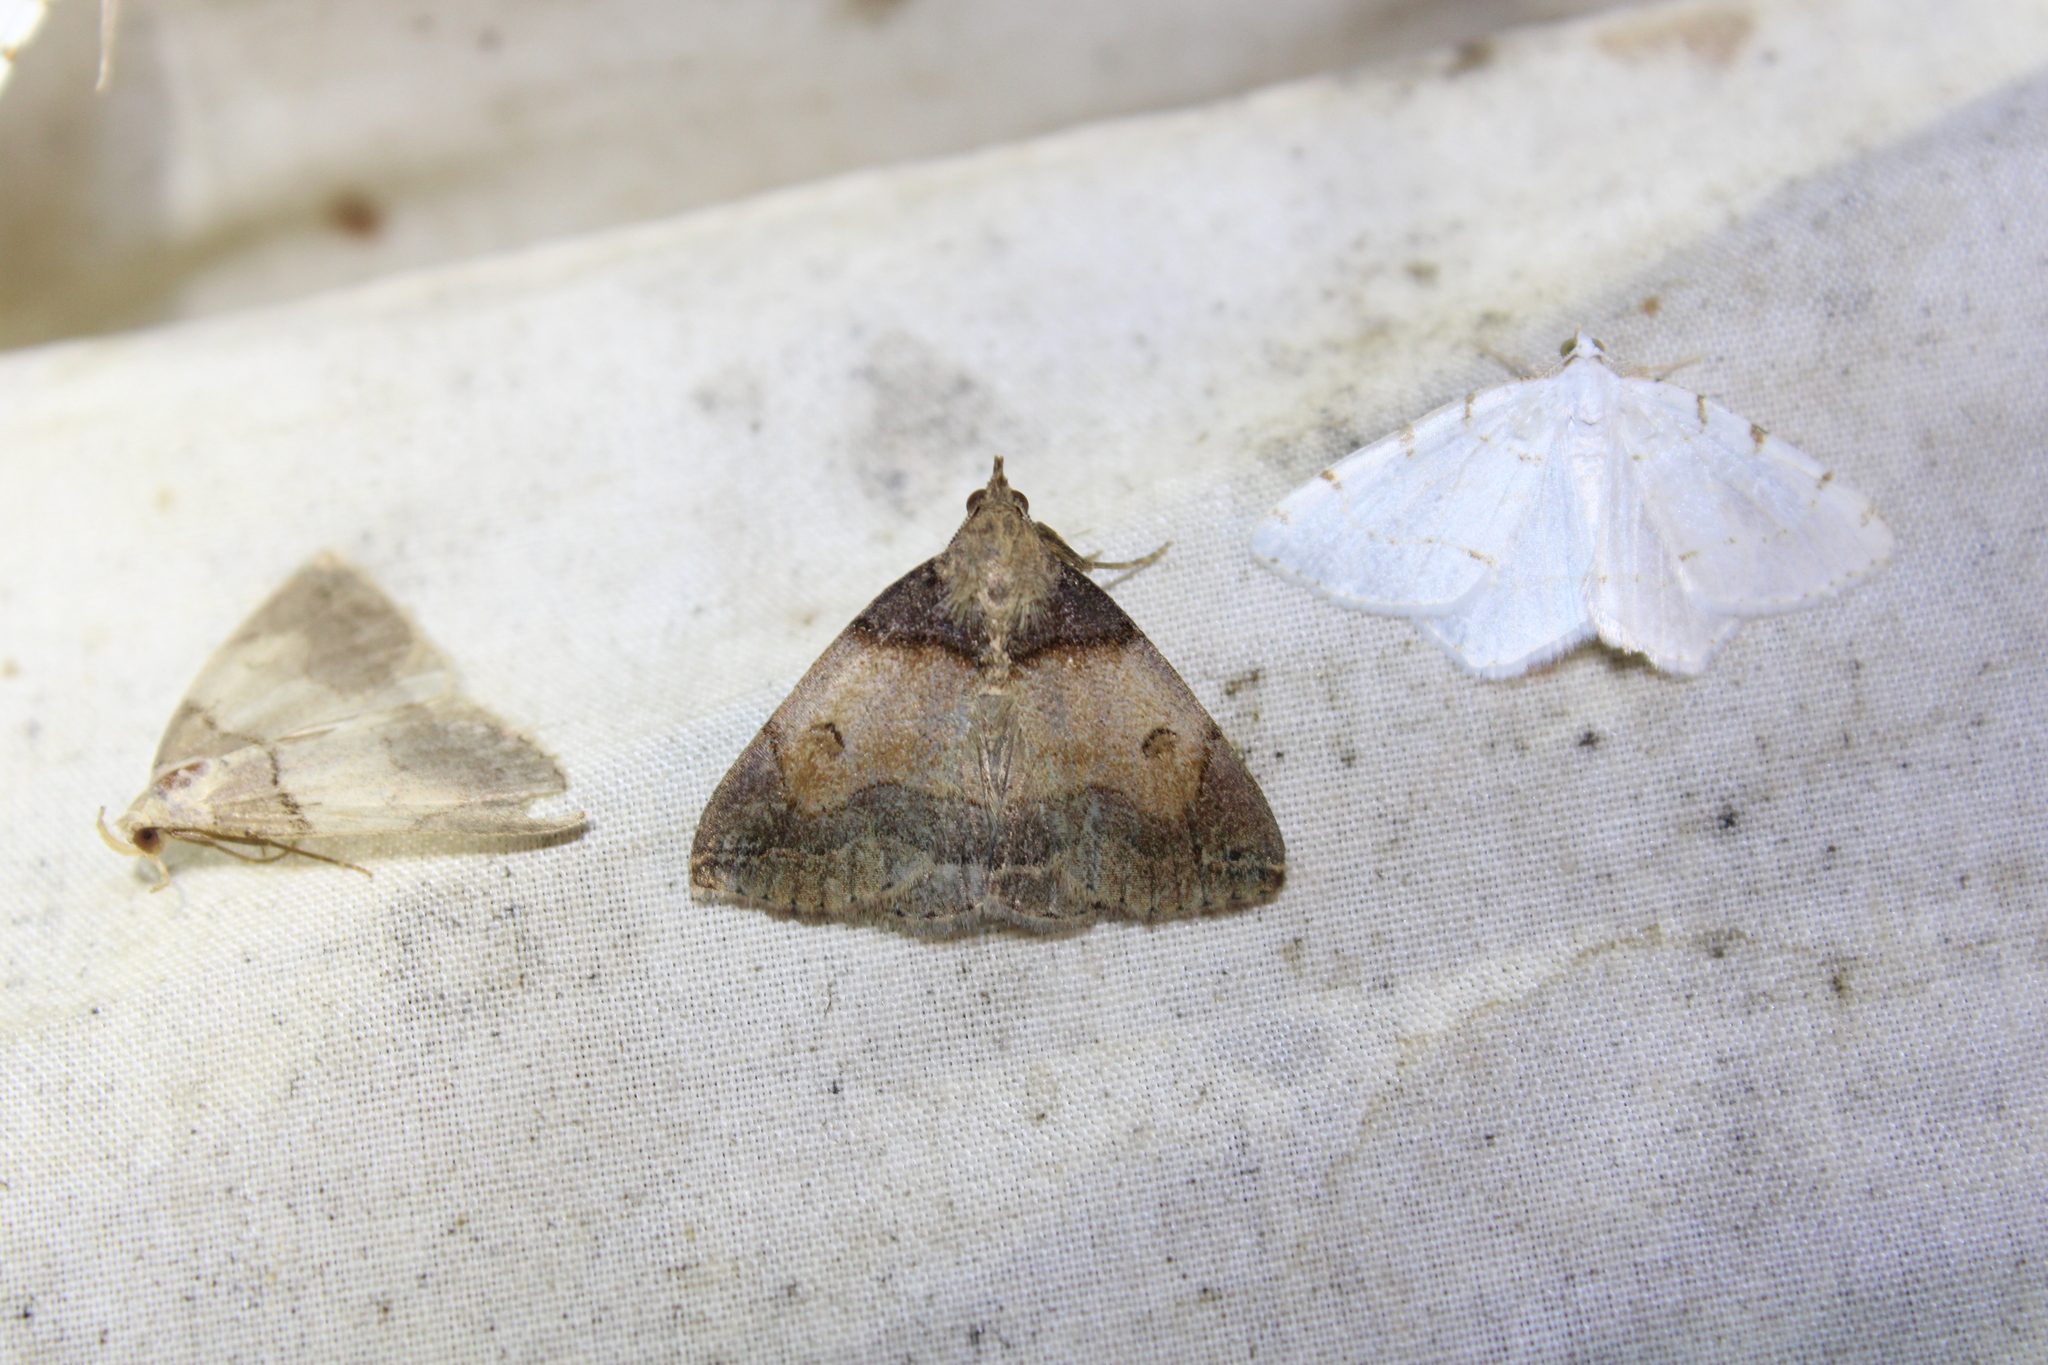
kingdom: Animalia
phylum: Arthropoda
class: Insecta
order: Lepidoptera
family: Erebidae
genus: Zanclognatha
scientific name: Zanclognatha laevigata
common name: Variable fan-foot
